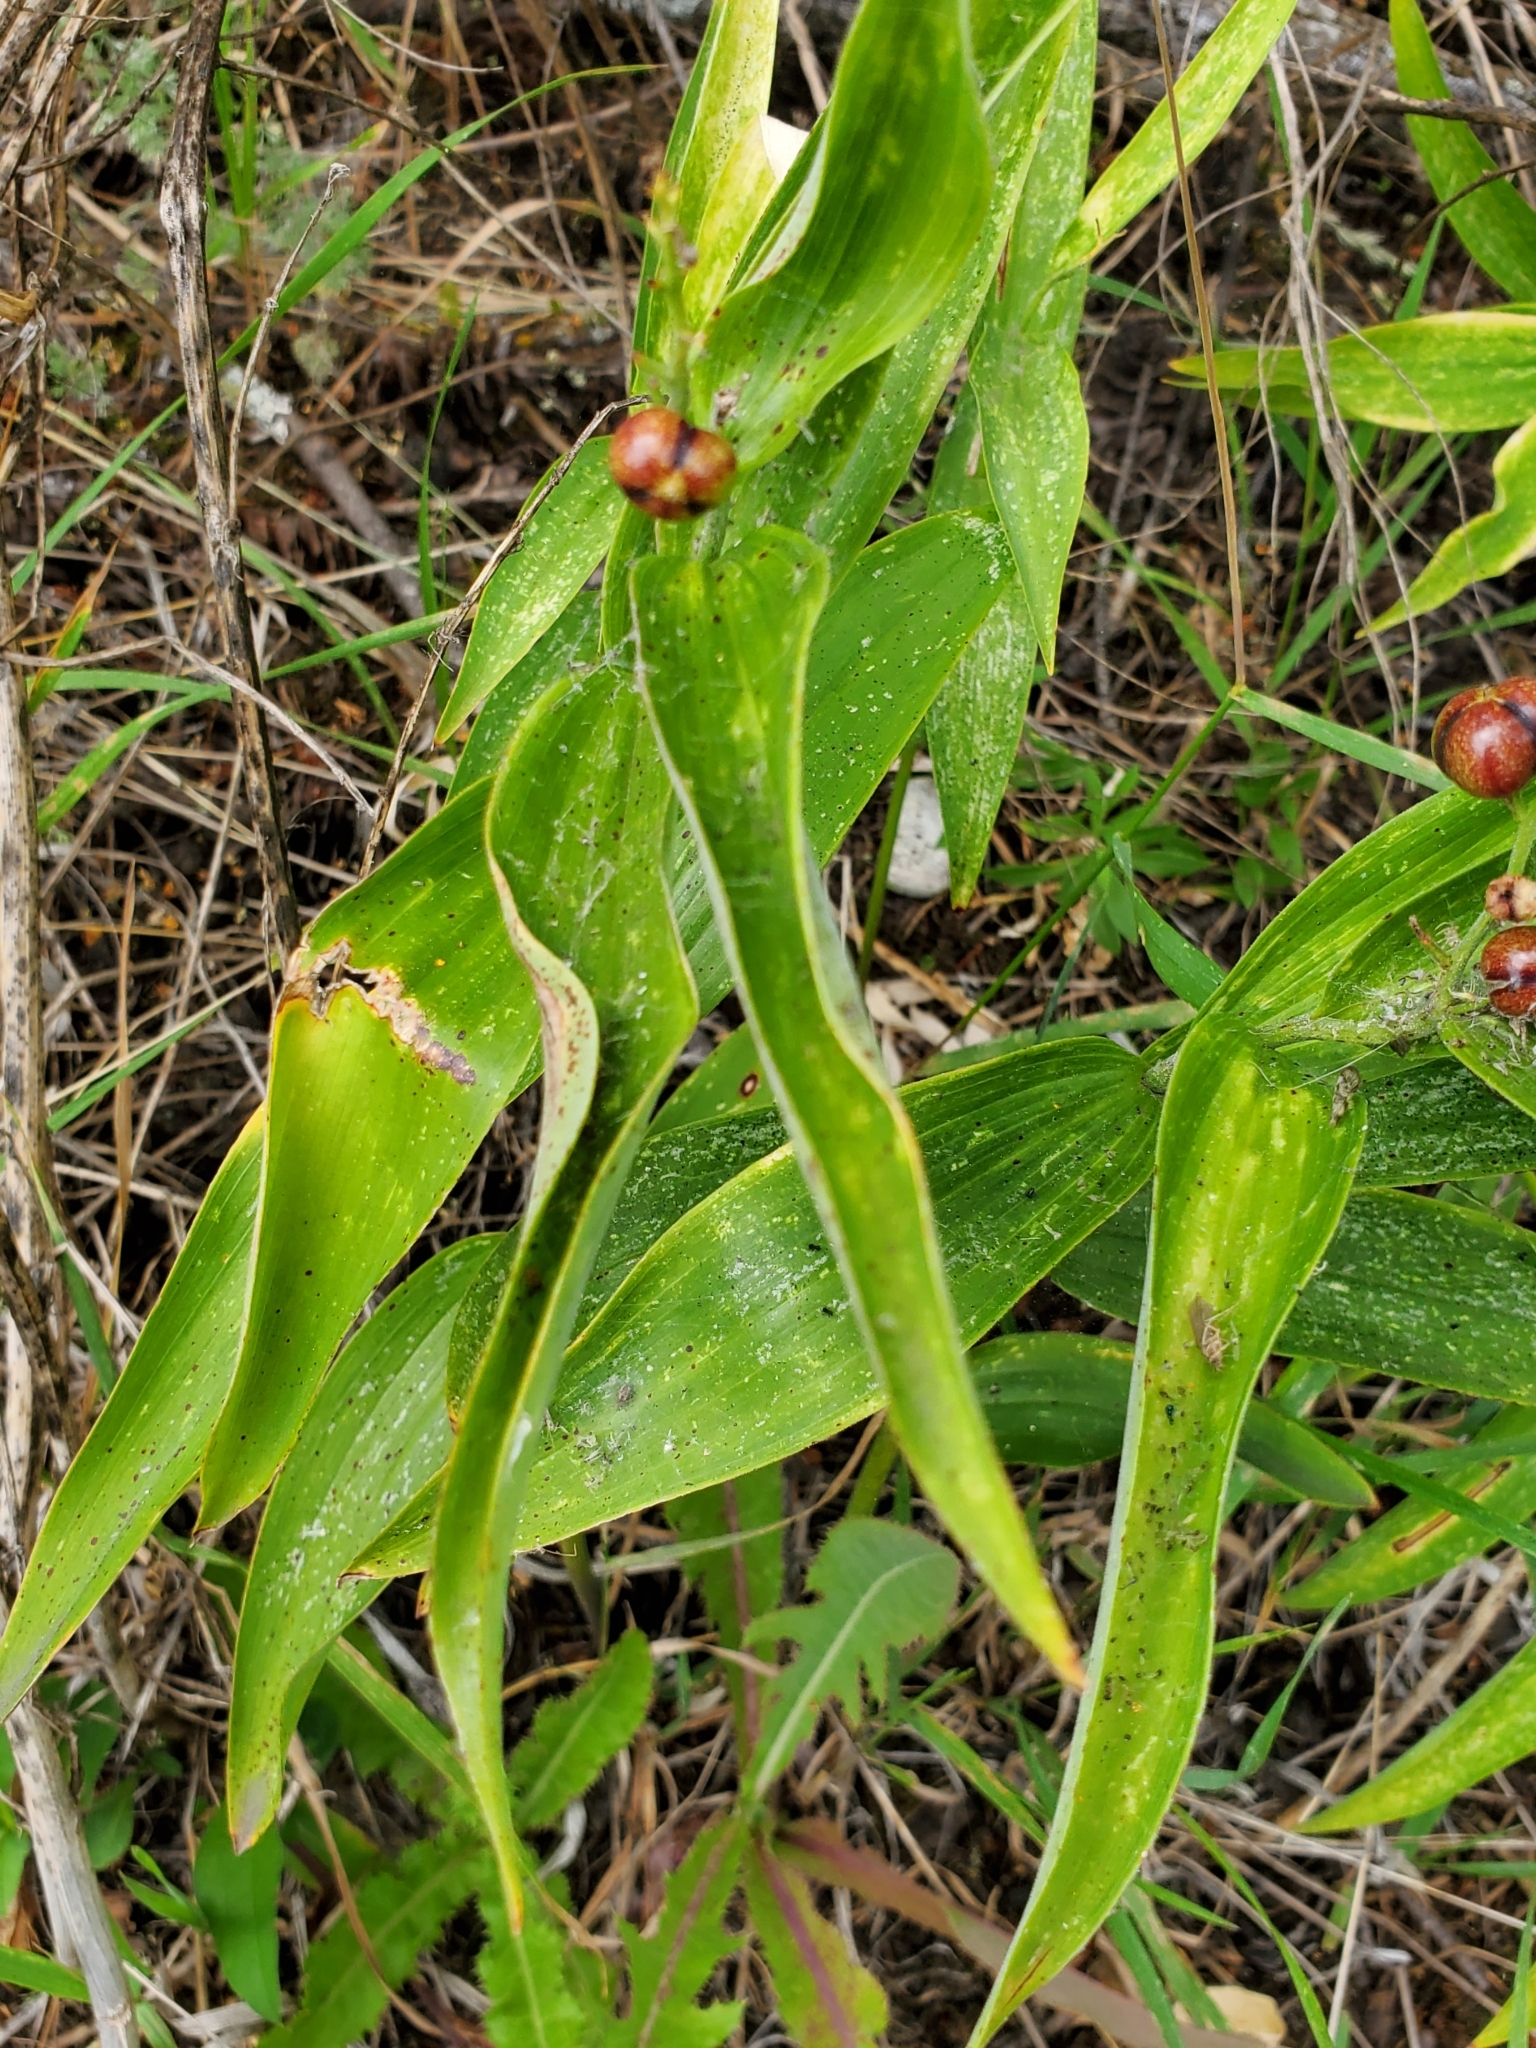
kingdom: Plantae
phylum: Tracheophyta
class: Liliopsida
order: Asparagales
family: Asparagaceae
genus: Maianthemum
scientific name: Maianthemum stellatum
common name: Little false solomon's seal
